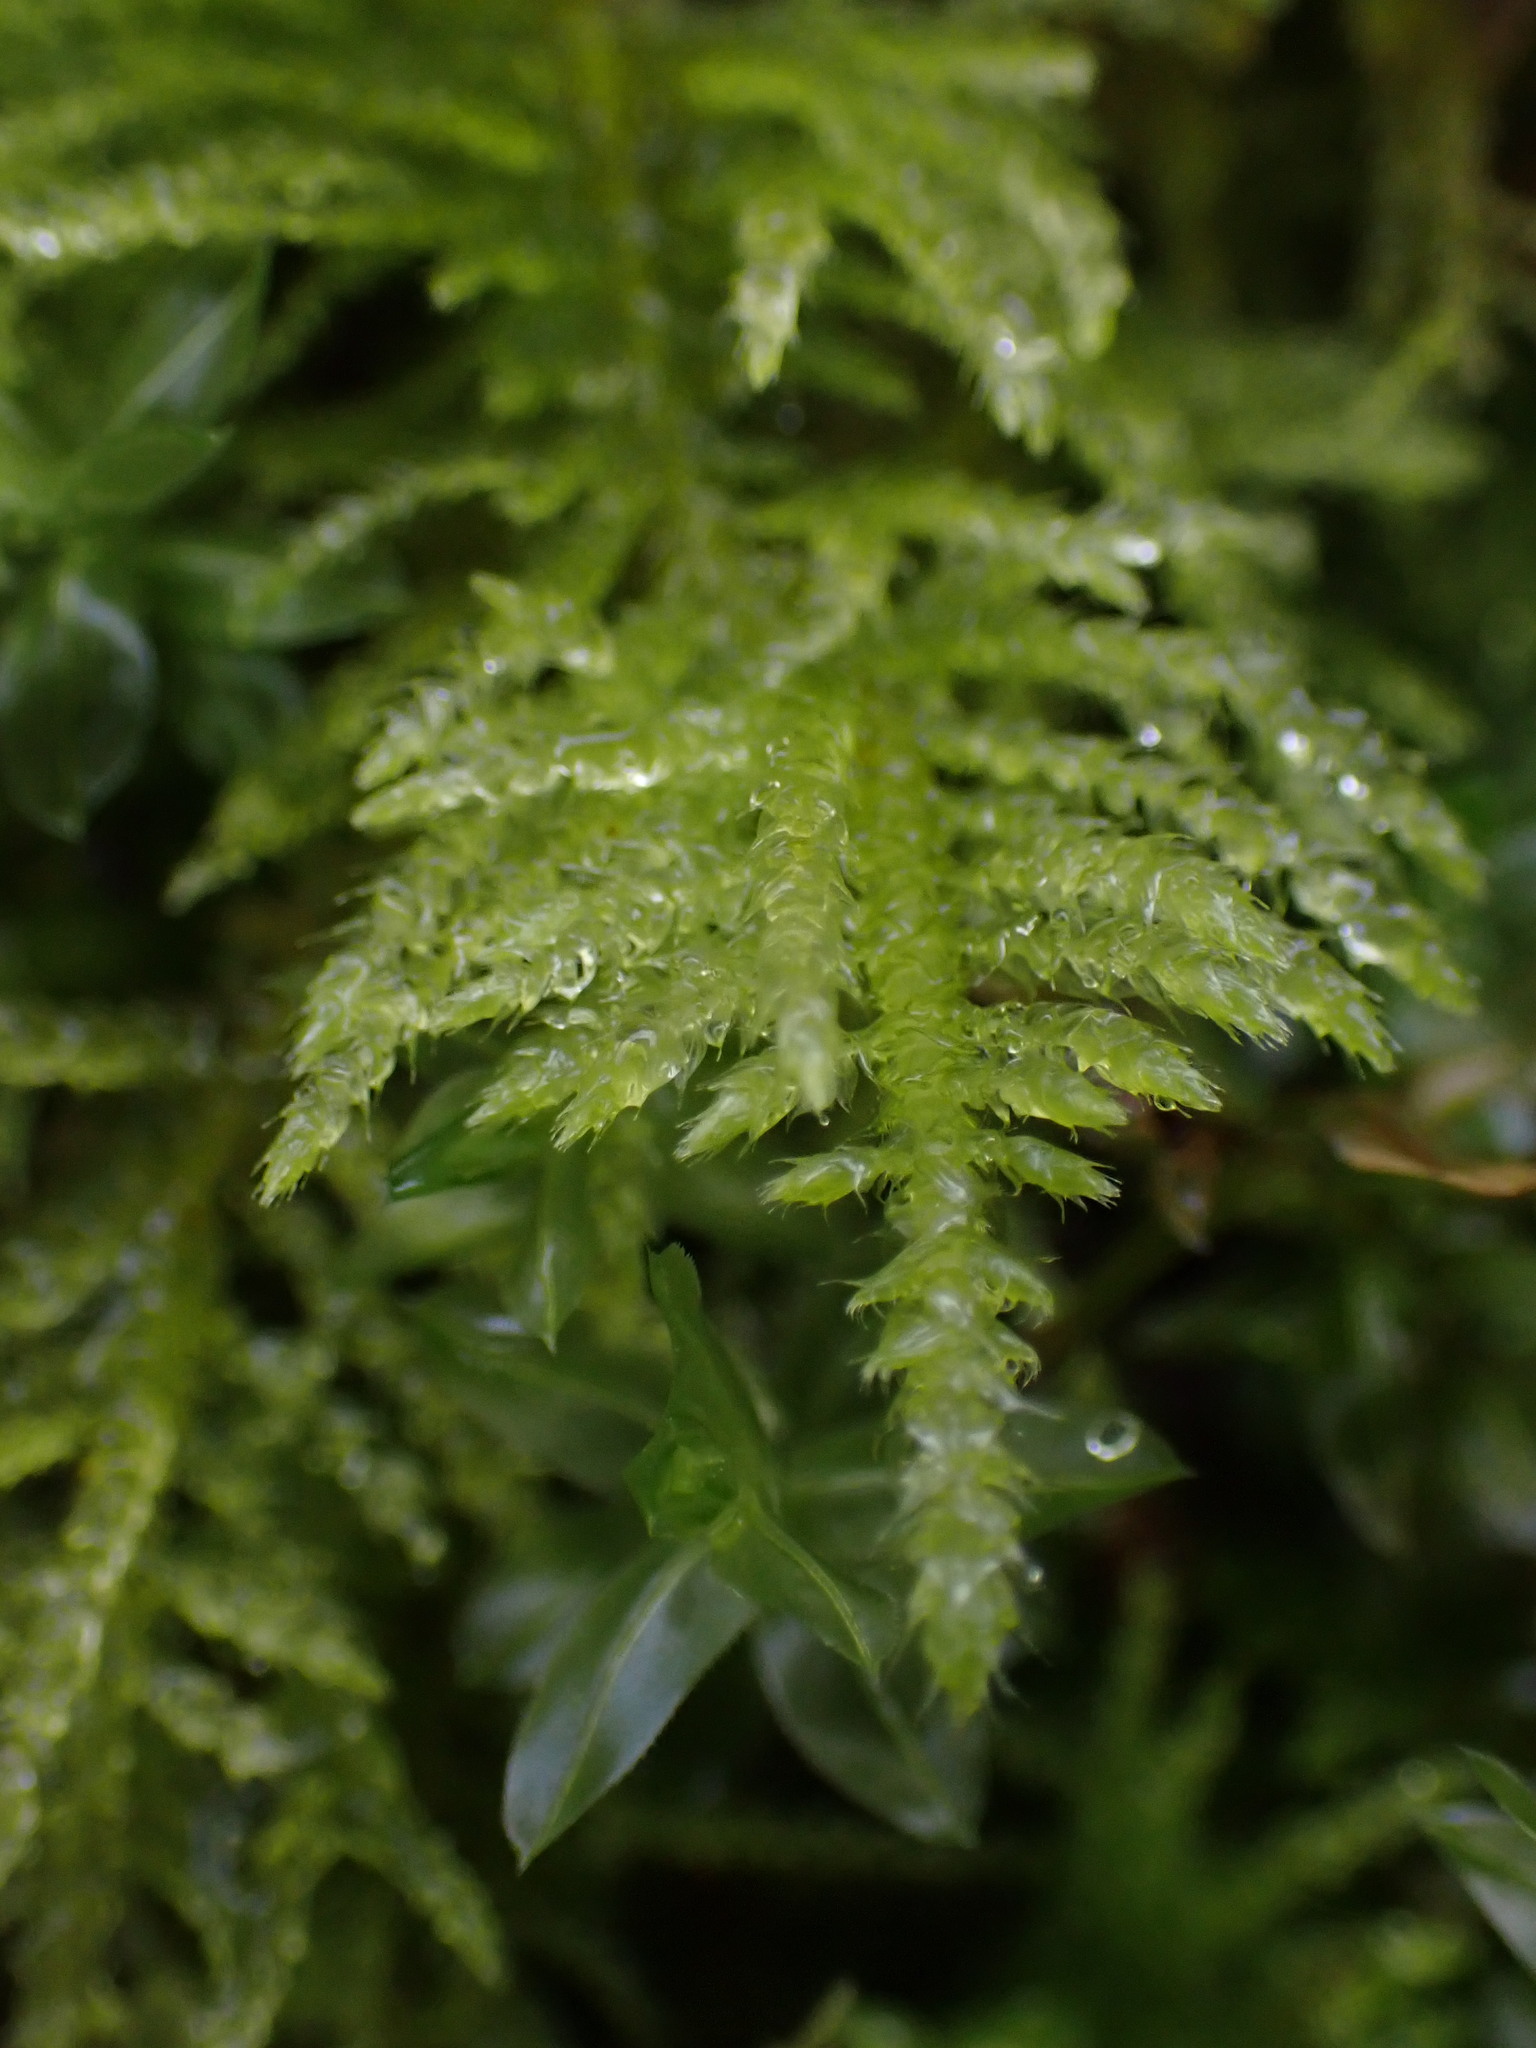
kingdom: Plantae
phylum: Bryophyta
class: Bryopsida
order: Hypnales
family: Brachytheciaceae
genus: Kindbergia
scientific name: Kindbergia oregana
